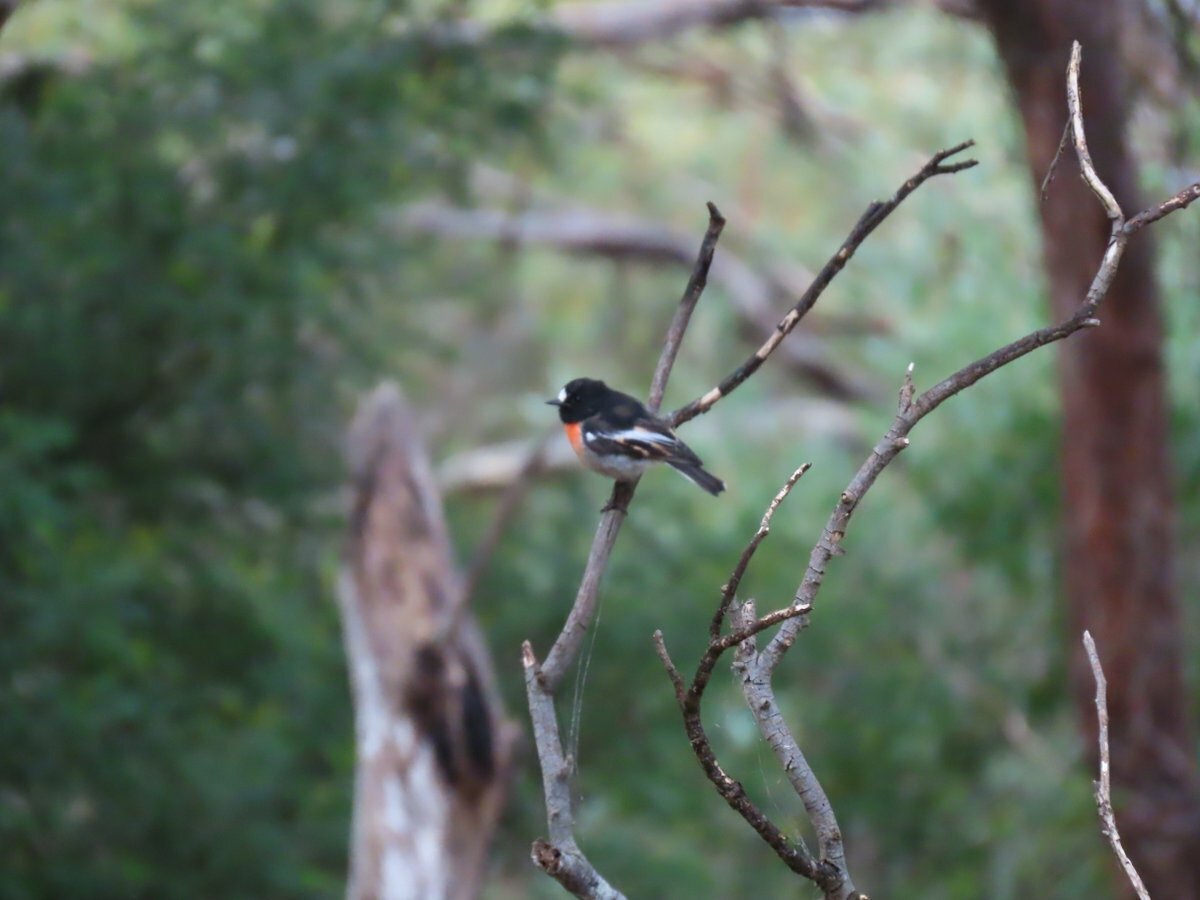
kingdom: Animalia
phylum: Chordata
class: Aves
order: Passeriformes
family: Petroicidae
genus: Petroica
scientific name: Petroica boodang
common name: Scarlet robin
